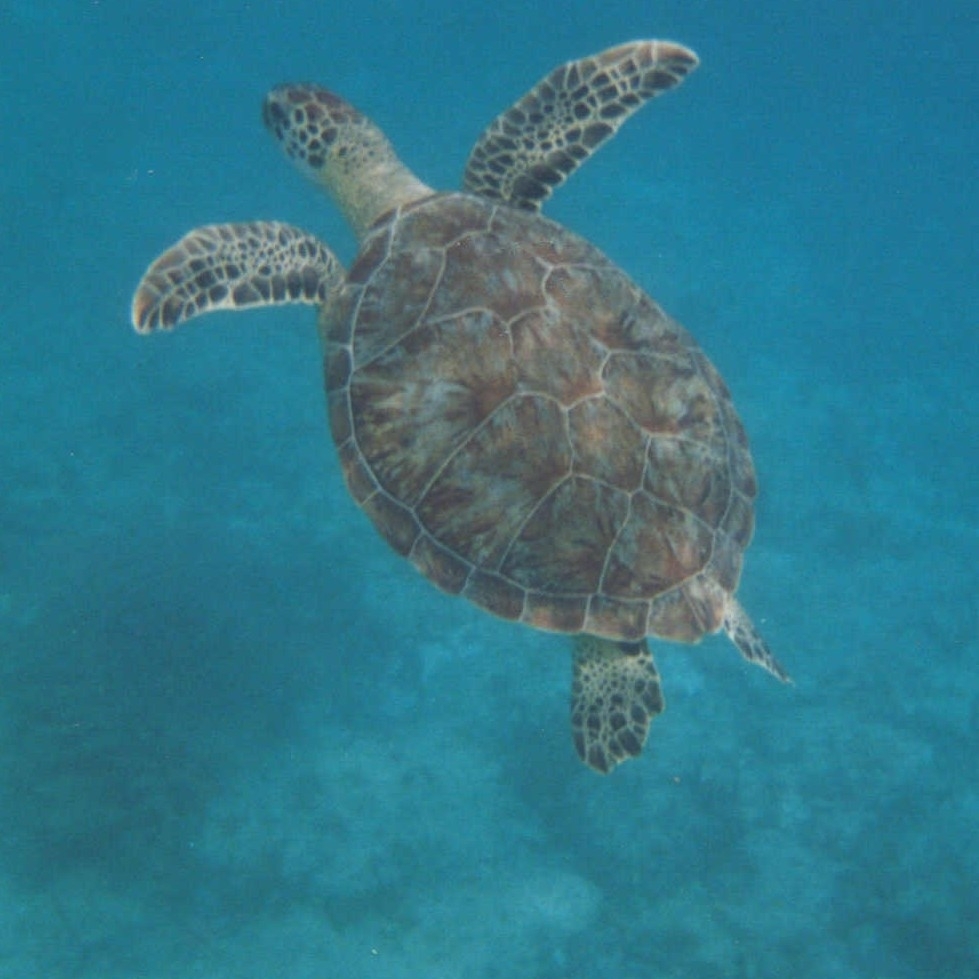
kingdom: Animalia
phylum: Chordata
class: Testudines
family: Cheloniidae
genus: Chelonia
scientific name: Chelonia mydas
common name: Green turtle
